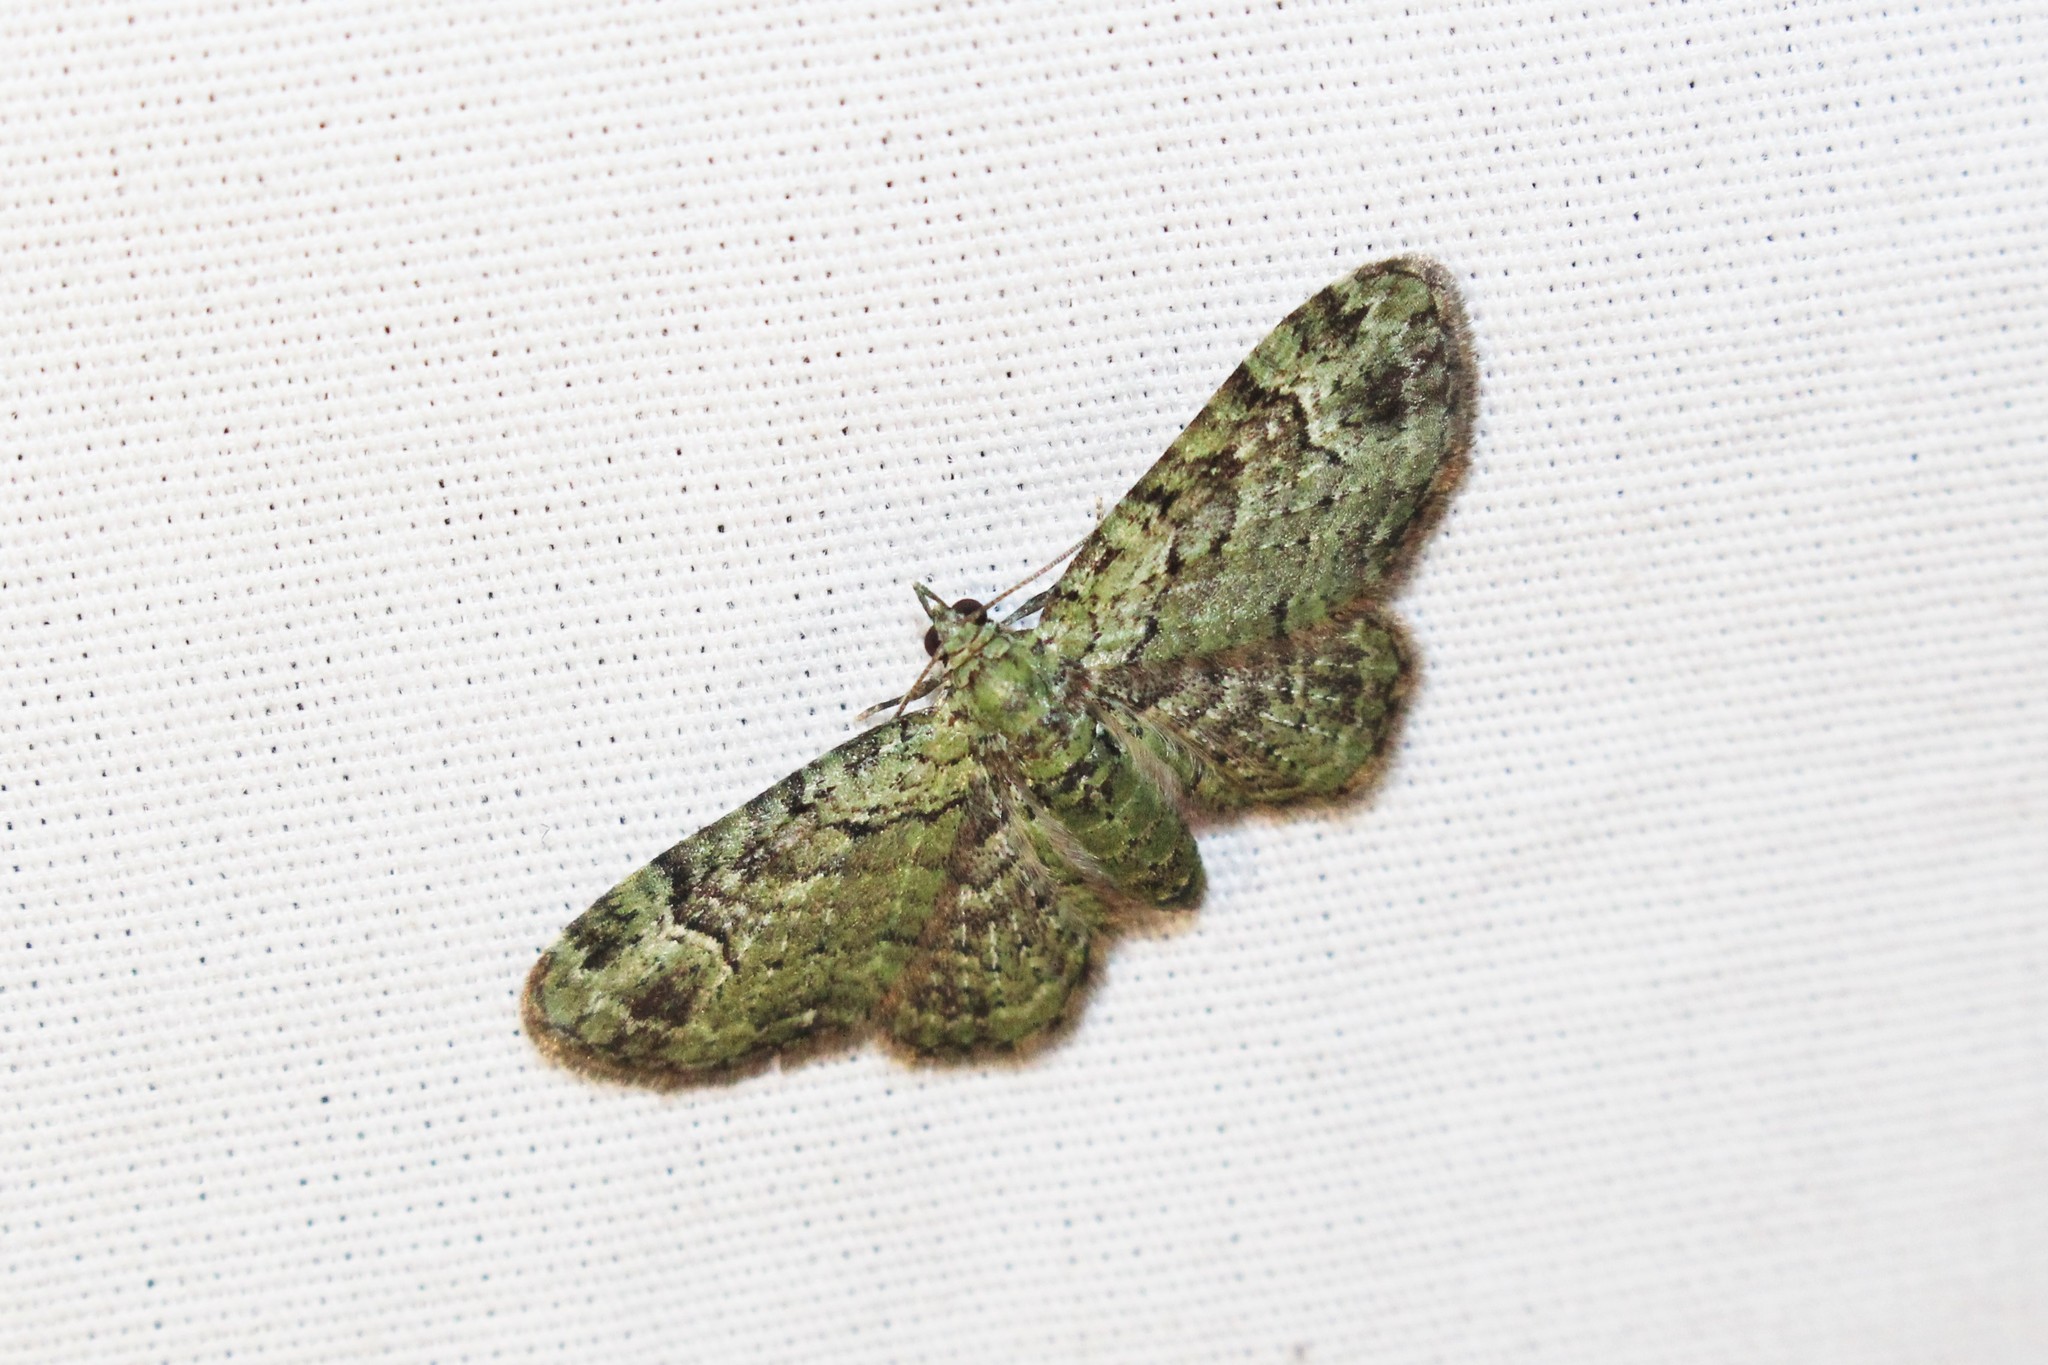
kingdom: Animalia
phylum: Arthropoda
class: Insecta
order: Lepidoptera
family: Geometridae
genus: Pasiphila
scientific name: Pasiphila rectangulata
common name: Green pug
